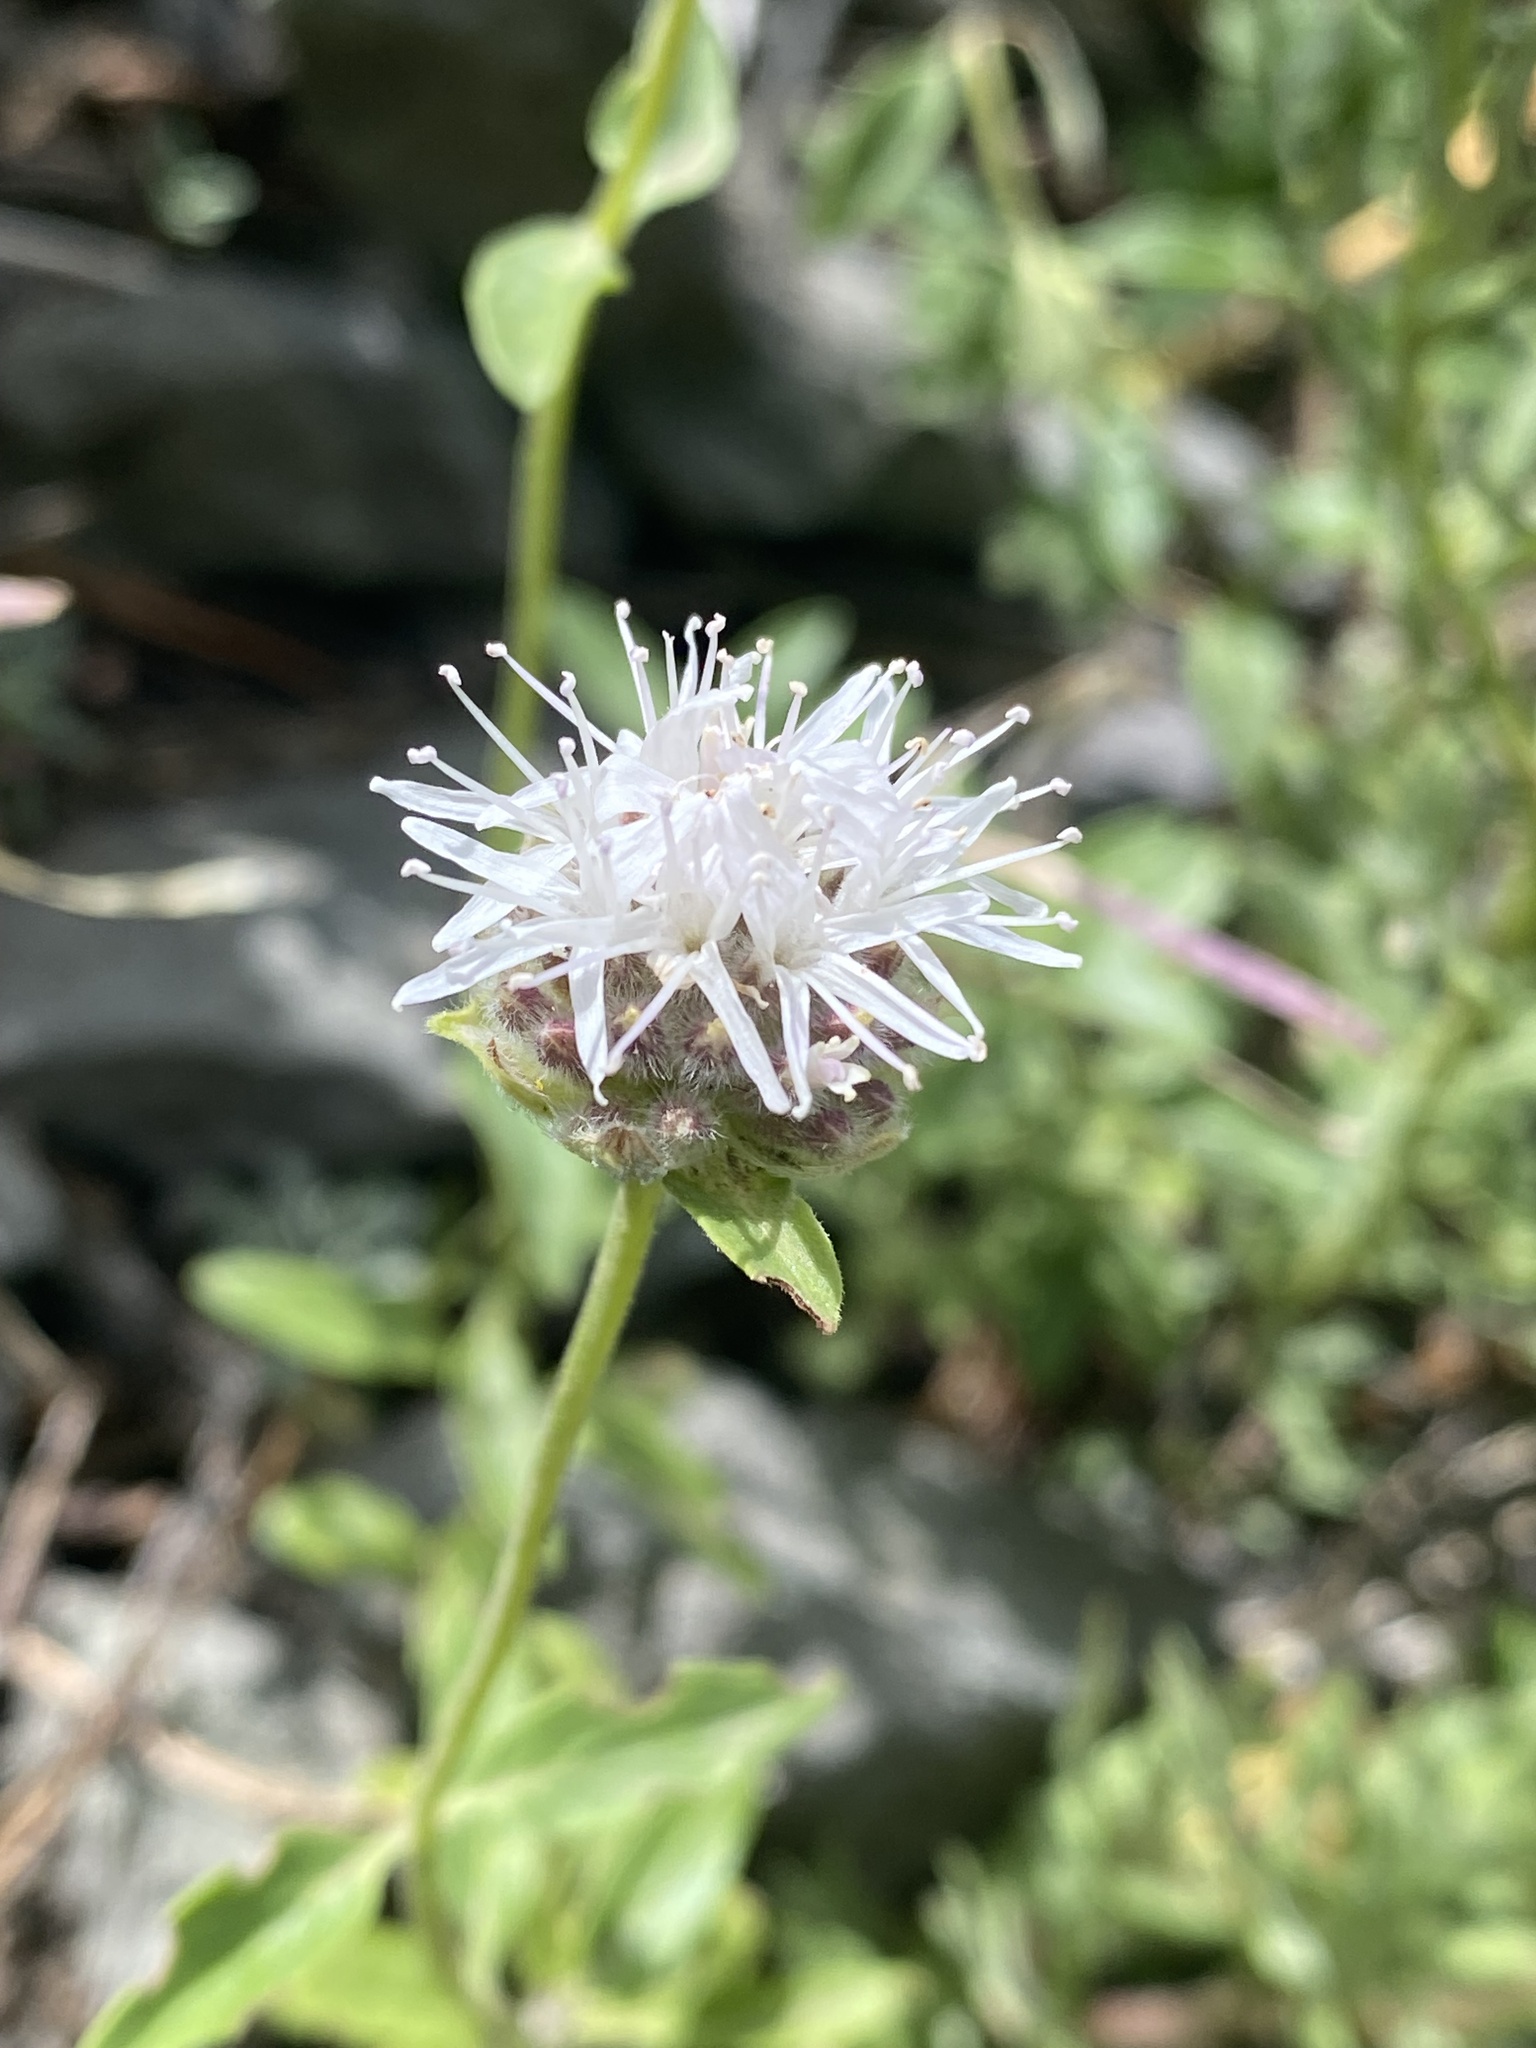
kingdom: Plantae
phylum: Tracheophyta
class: Magnoliopsida
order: Lamiales
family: Lamiaceae
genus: Monardella
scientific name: Monardella odoratissima
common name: Pacific monardella
